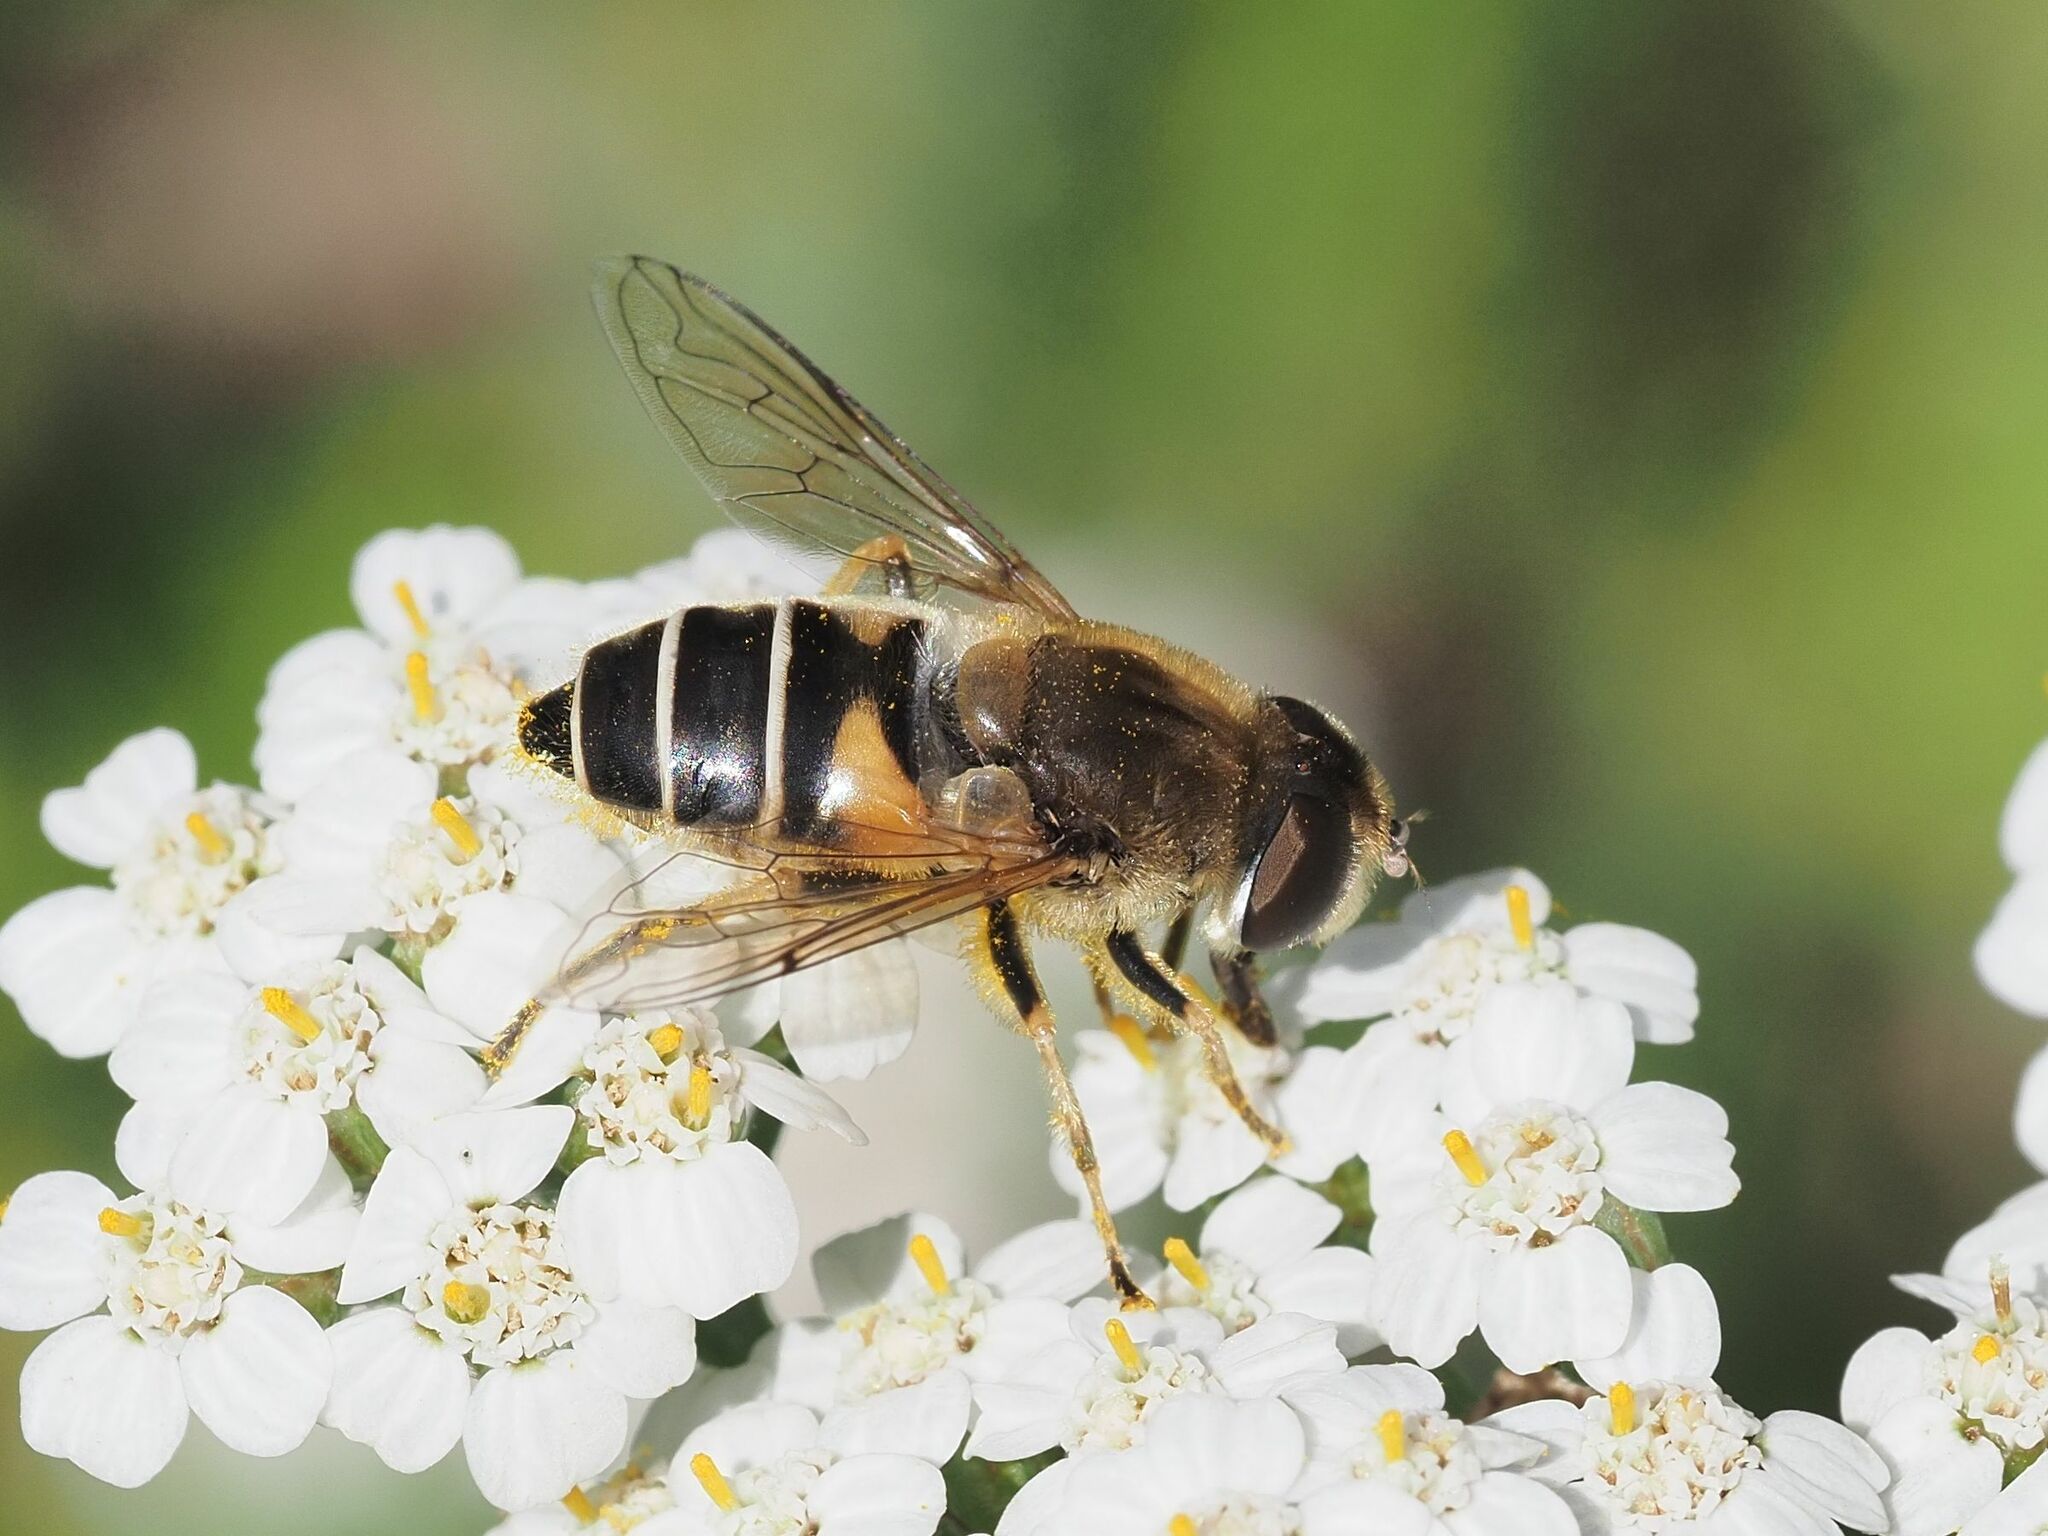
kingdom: Animalia
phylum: Arthropoda
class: Insecta
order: Diptera
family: Syrphidae
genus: Eristalis
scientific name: Eristalis nemorum
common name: Orange-spined drone fly
